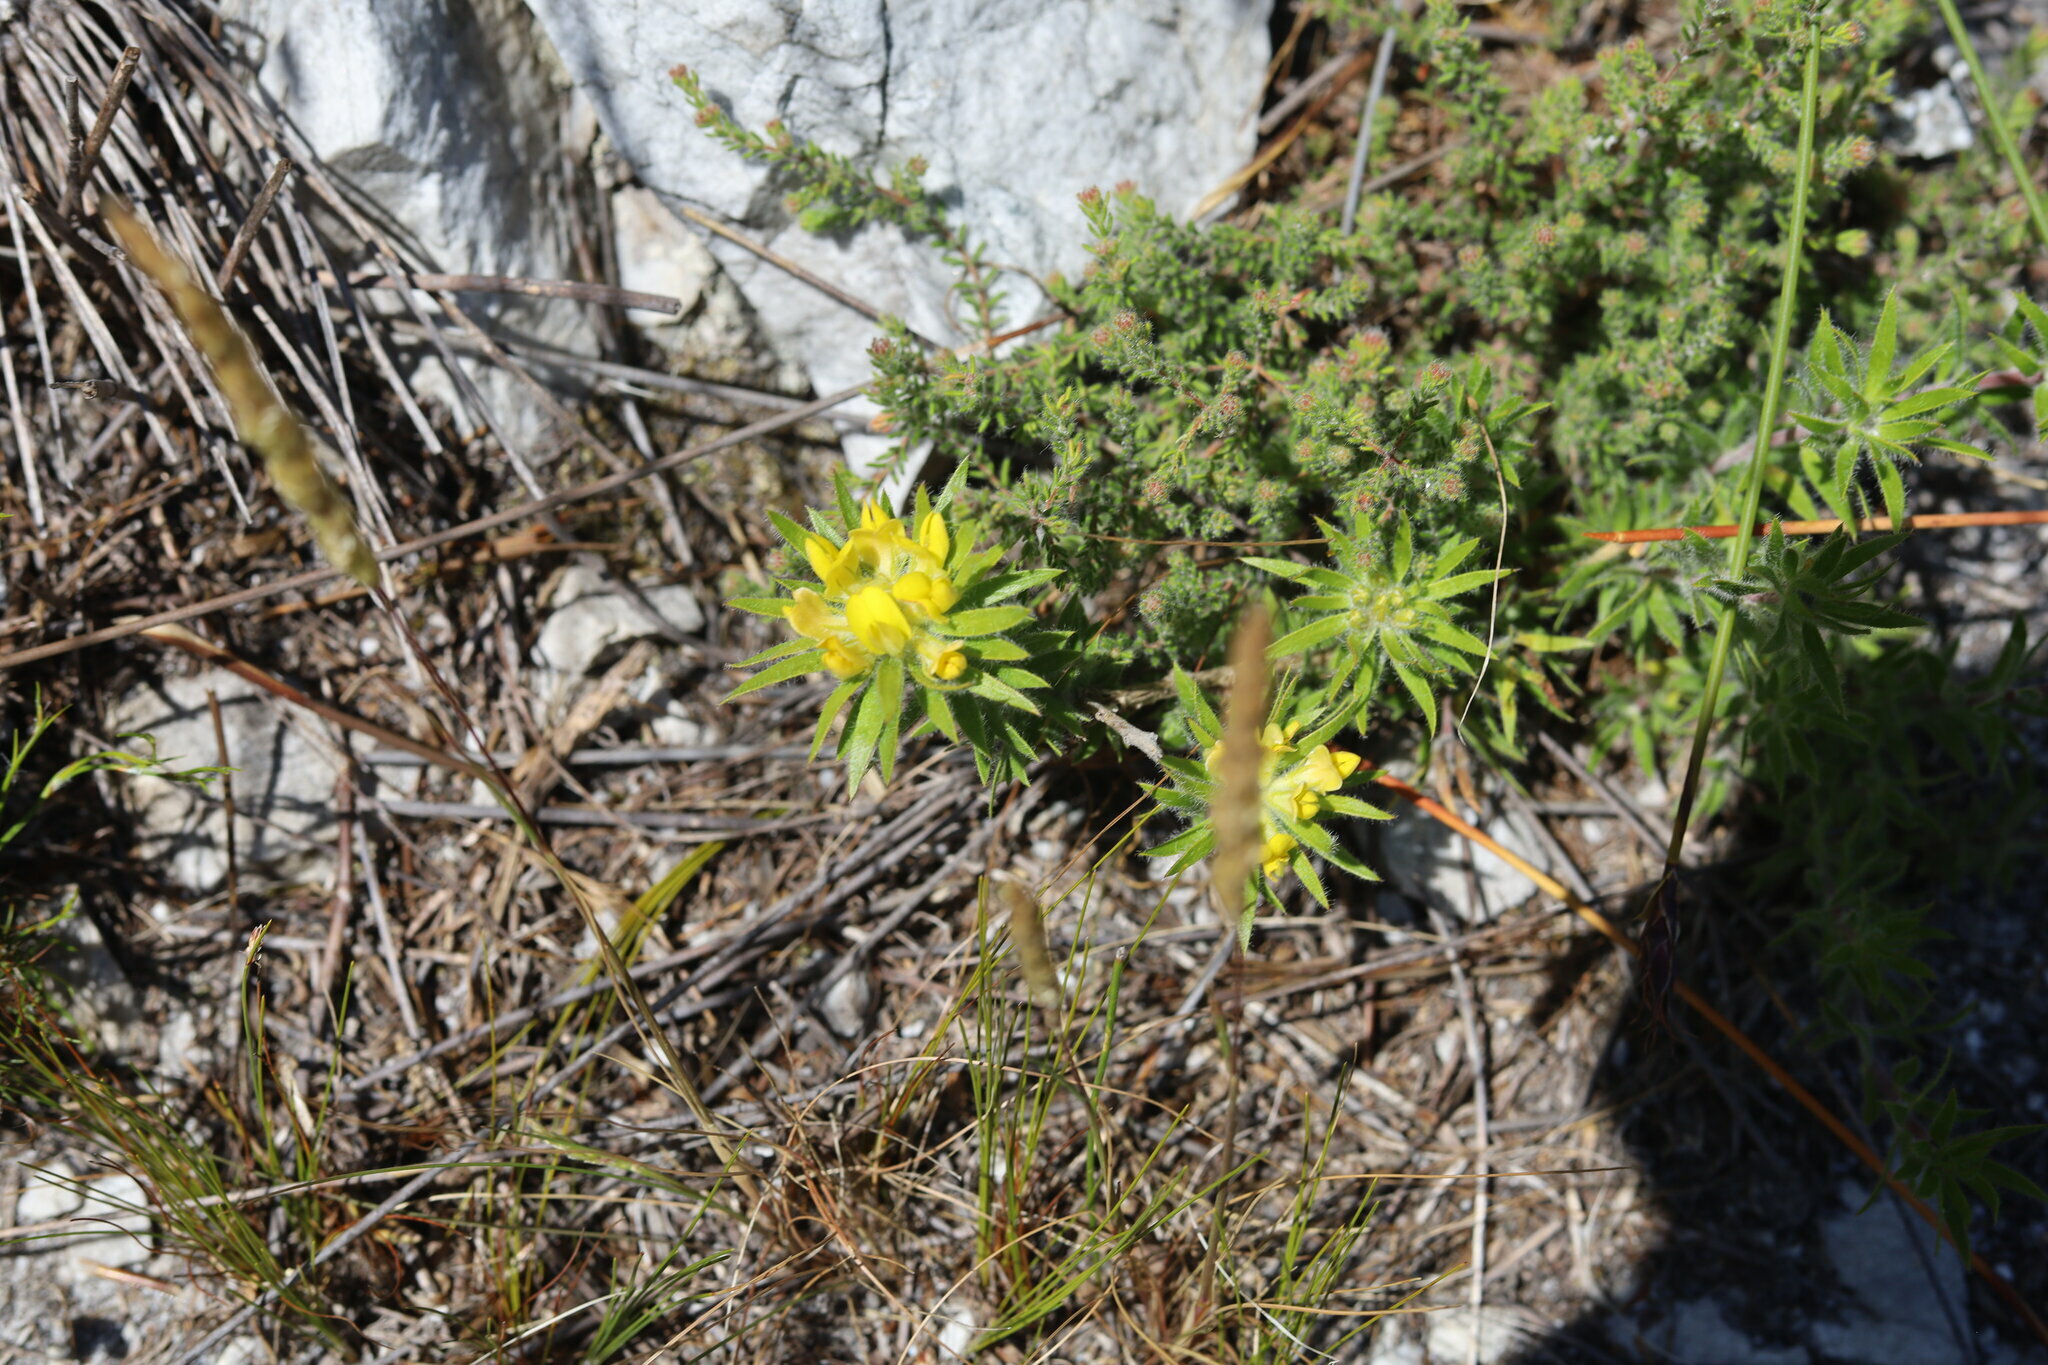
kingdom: Plantae
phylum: Tracheophyta
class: Magnoliopsida
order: Fabales
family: Fabaceae
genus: Aspalathus
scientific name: Aspalathus aspalathoides
